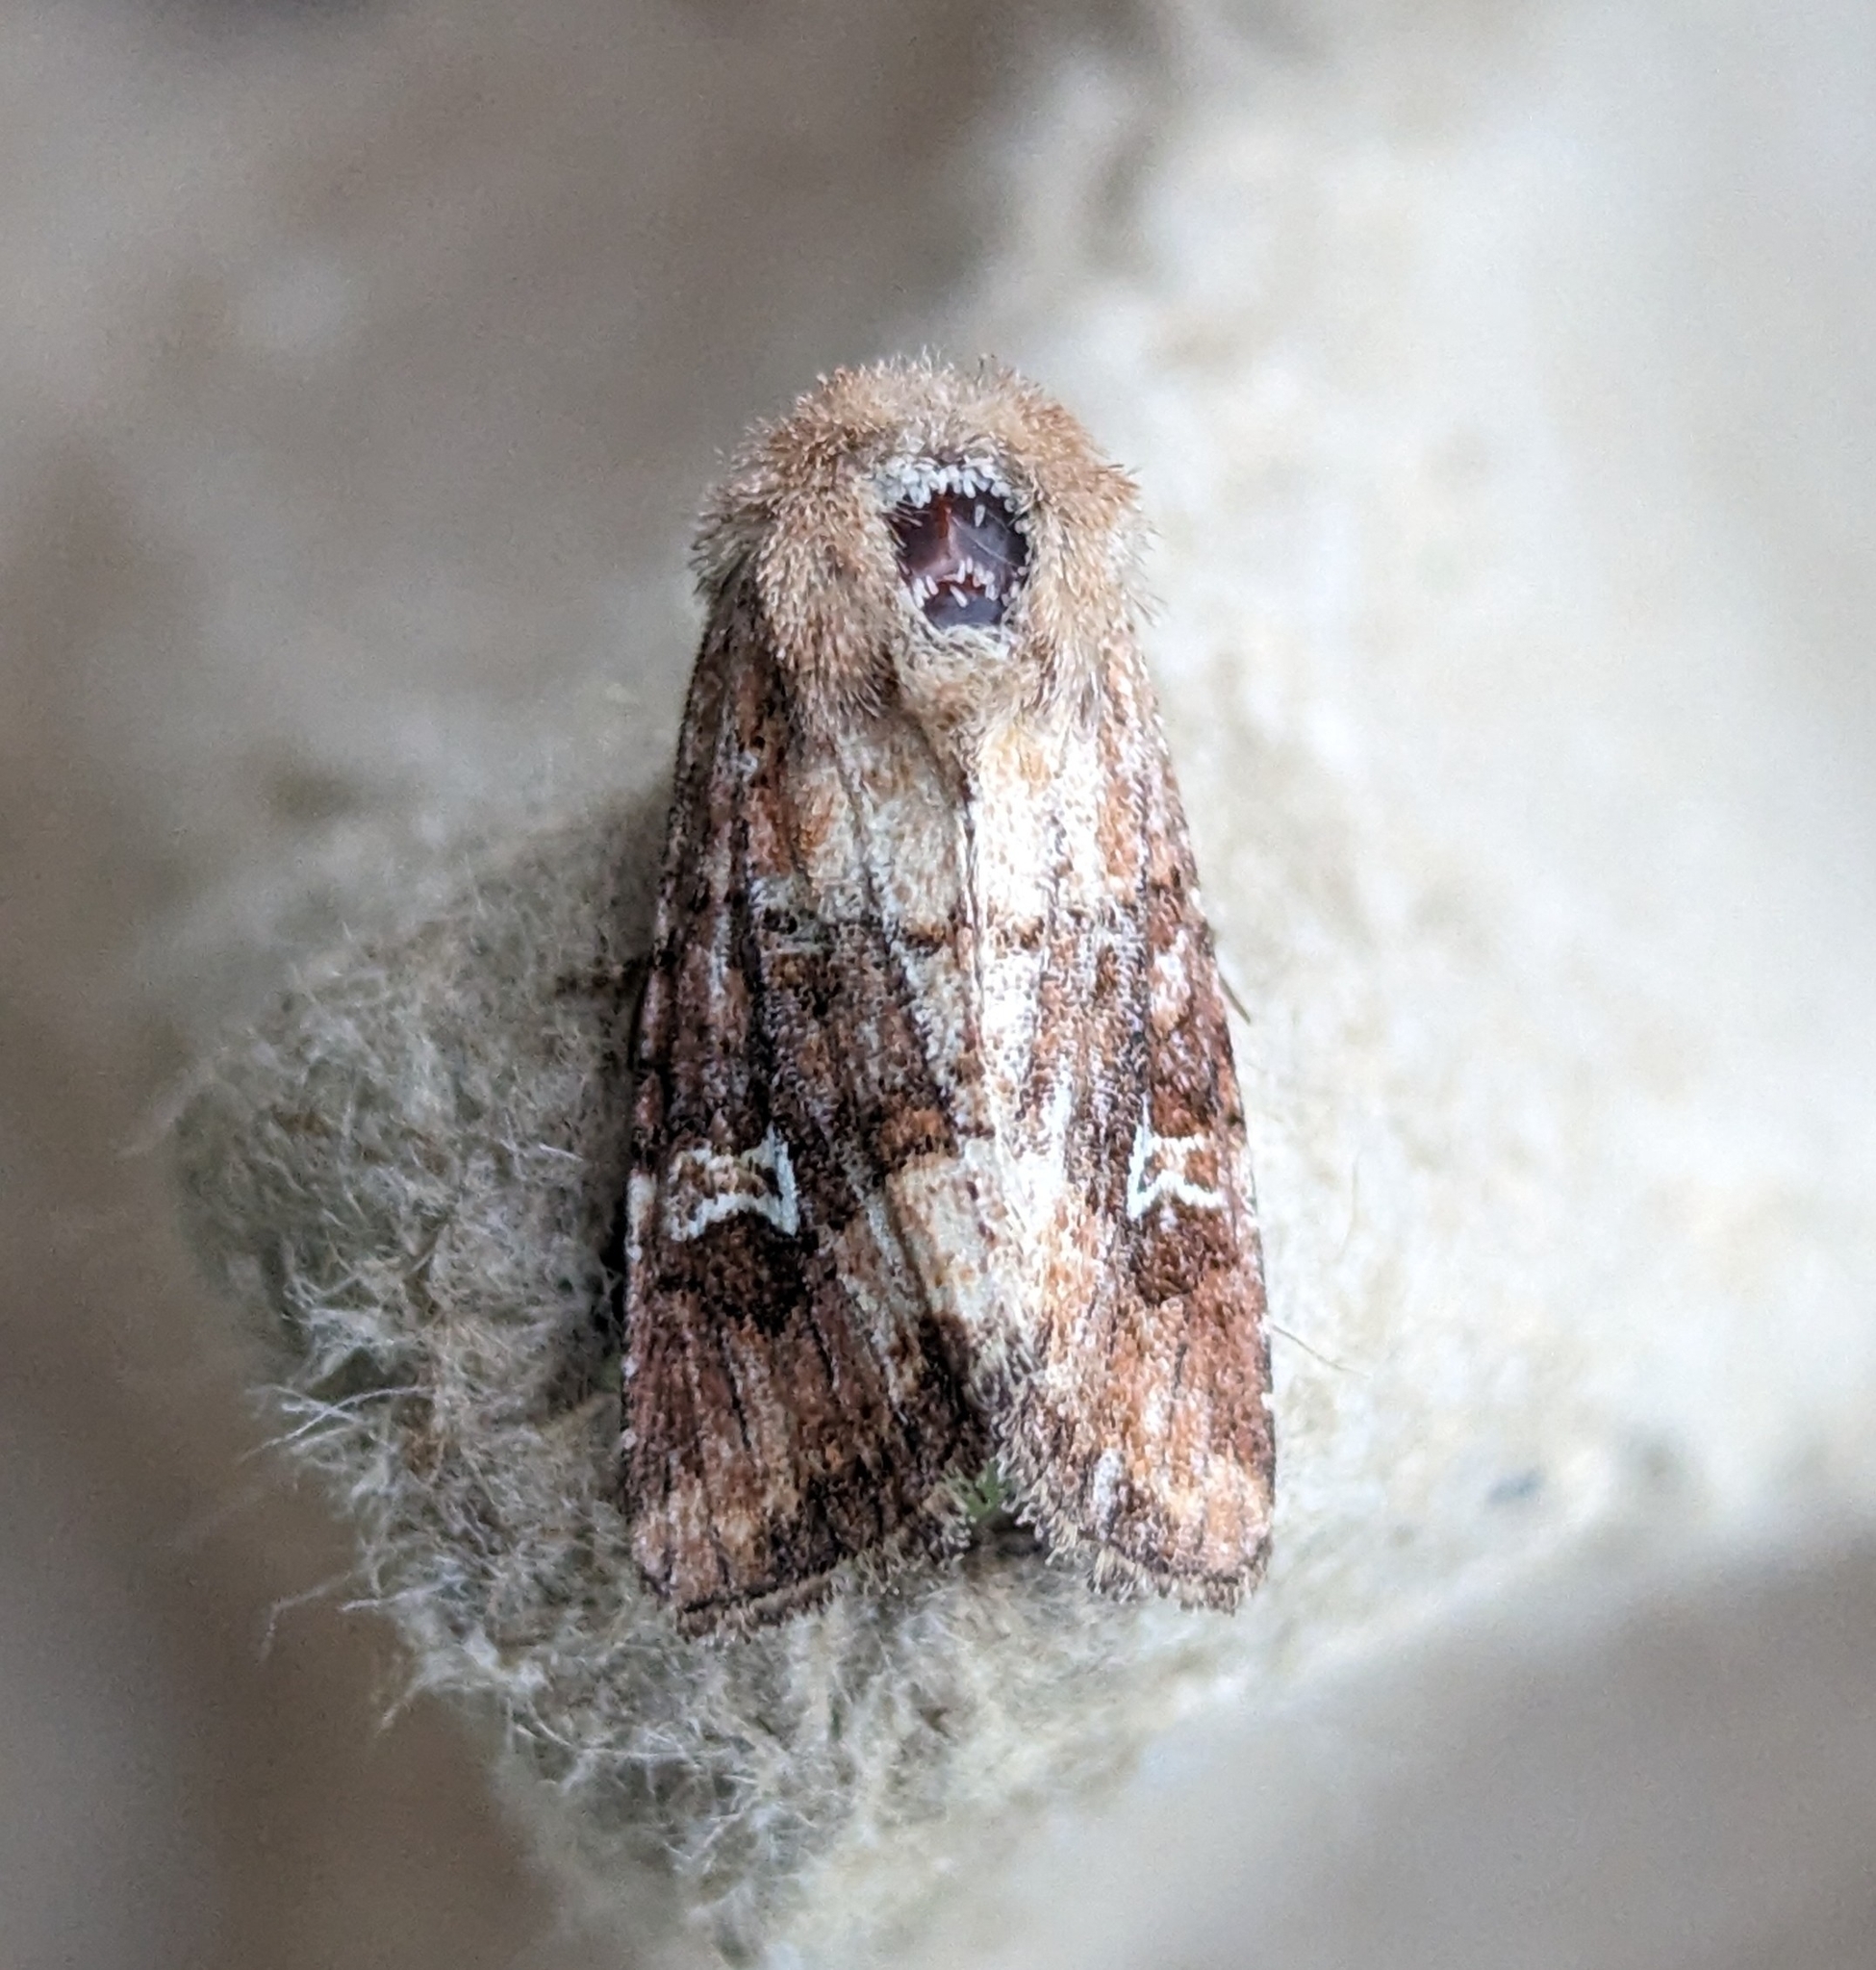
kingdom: Animalia
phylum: Arthropoda
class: Insecta
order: Lepidoptera
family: Noctuidae
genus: Lacinipolia
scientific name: Lacinipolia stricta
